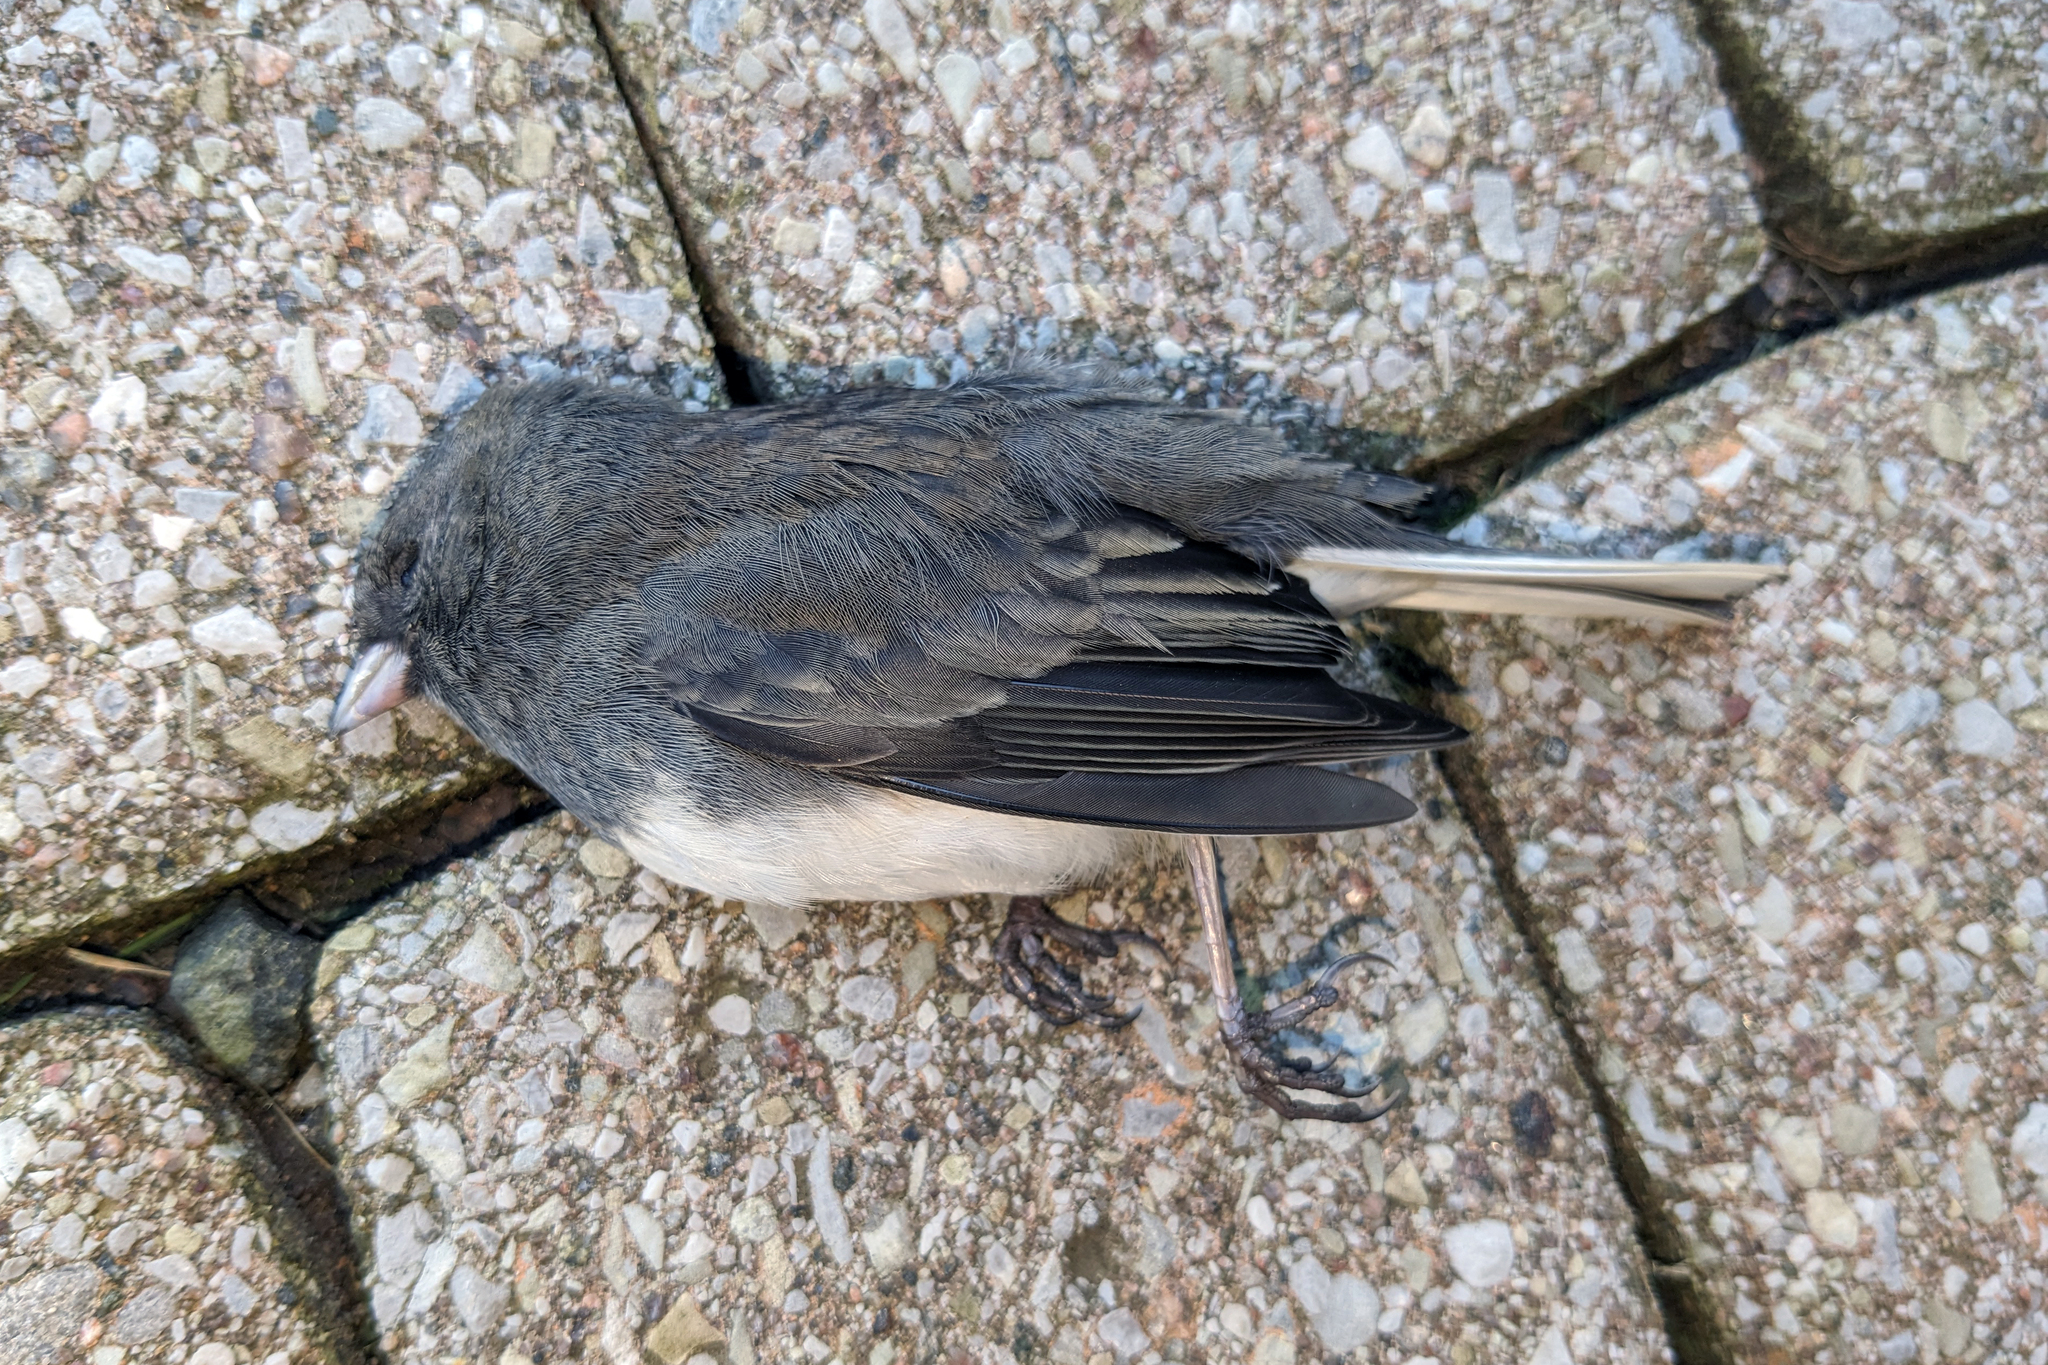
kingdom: Animalia
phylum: Chordata
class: Aves
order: Passeriformes
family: Passerellidae
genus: Junco
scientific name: Junco hyemalis
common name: Dark-eyed junco
